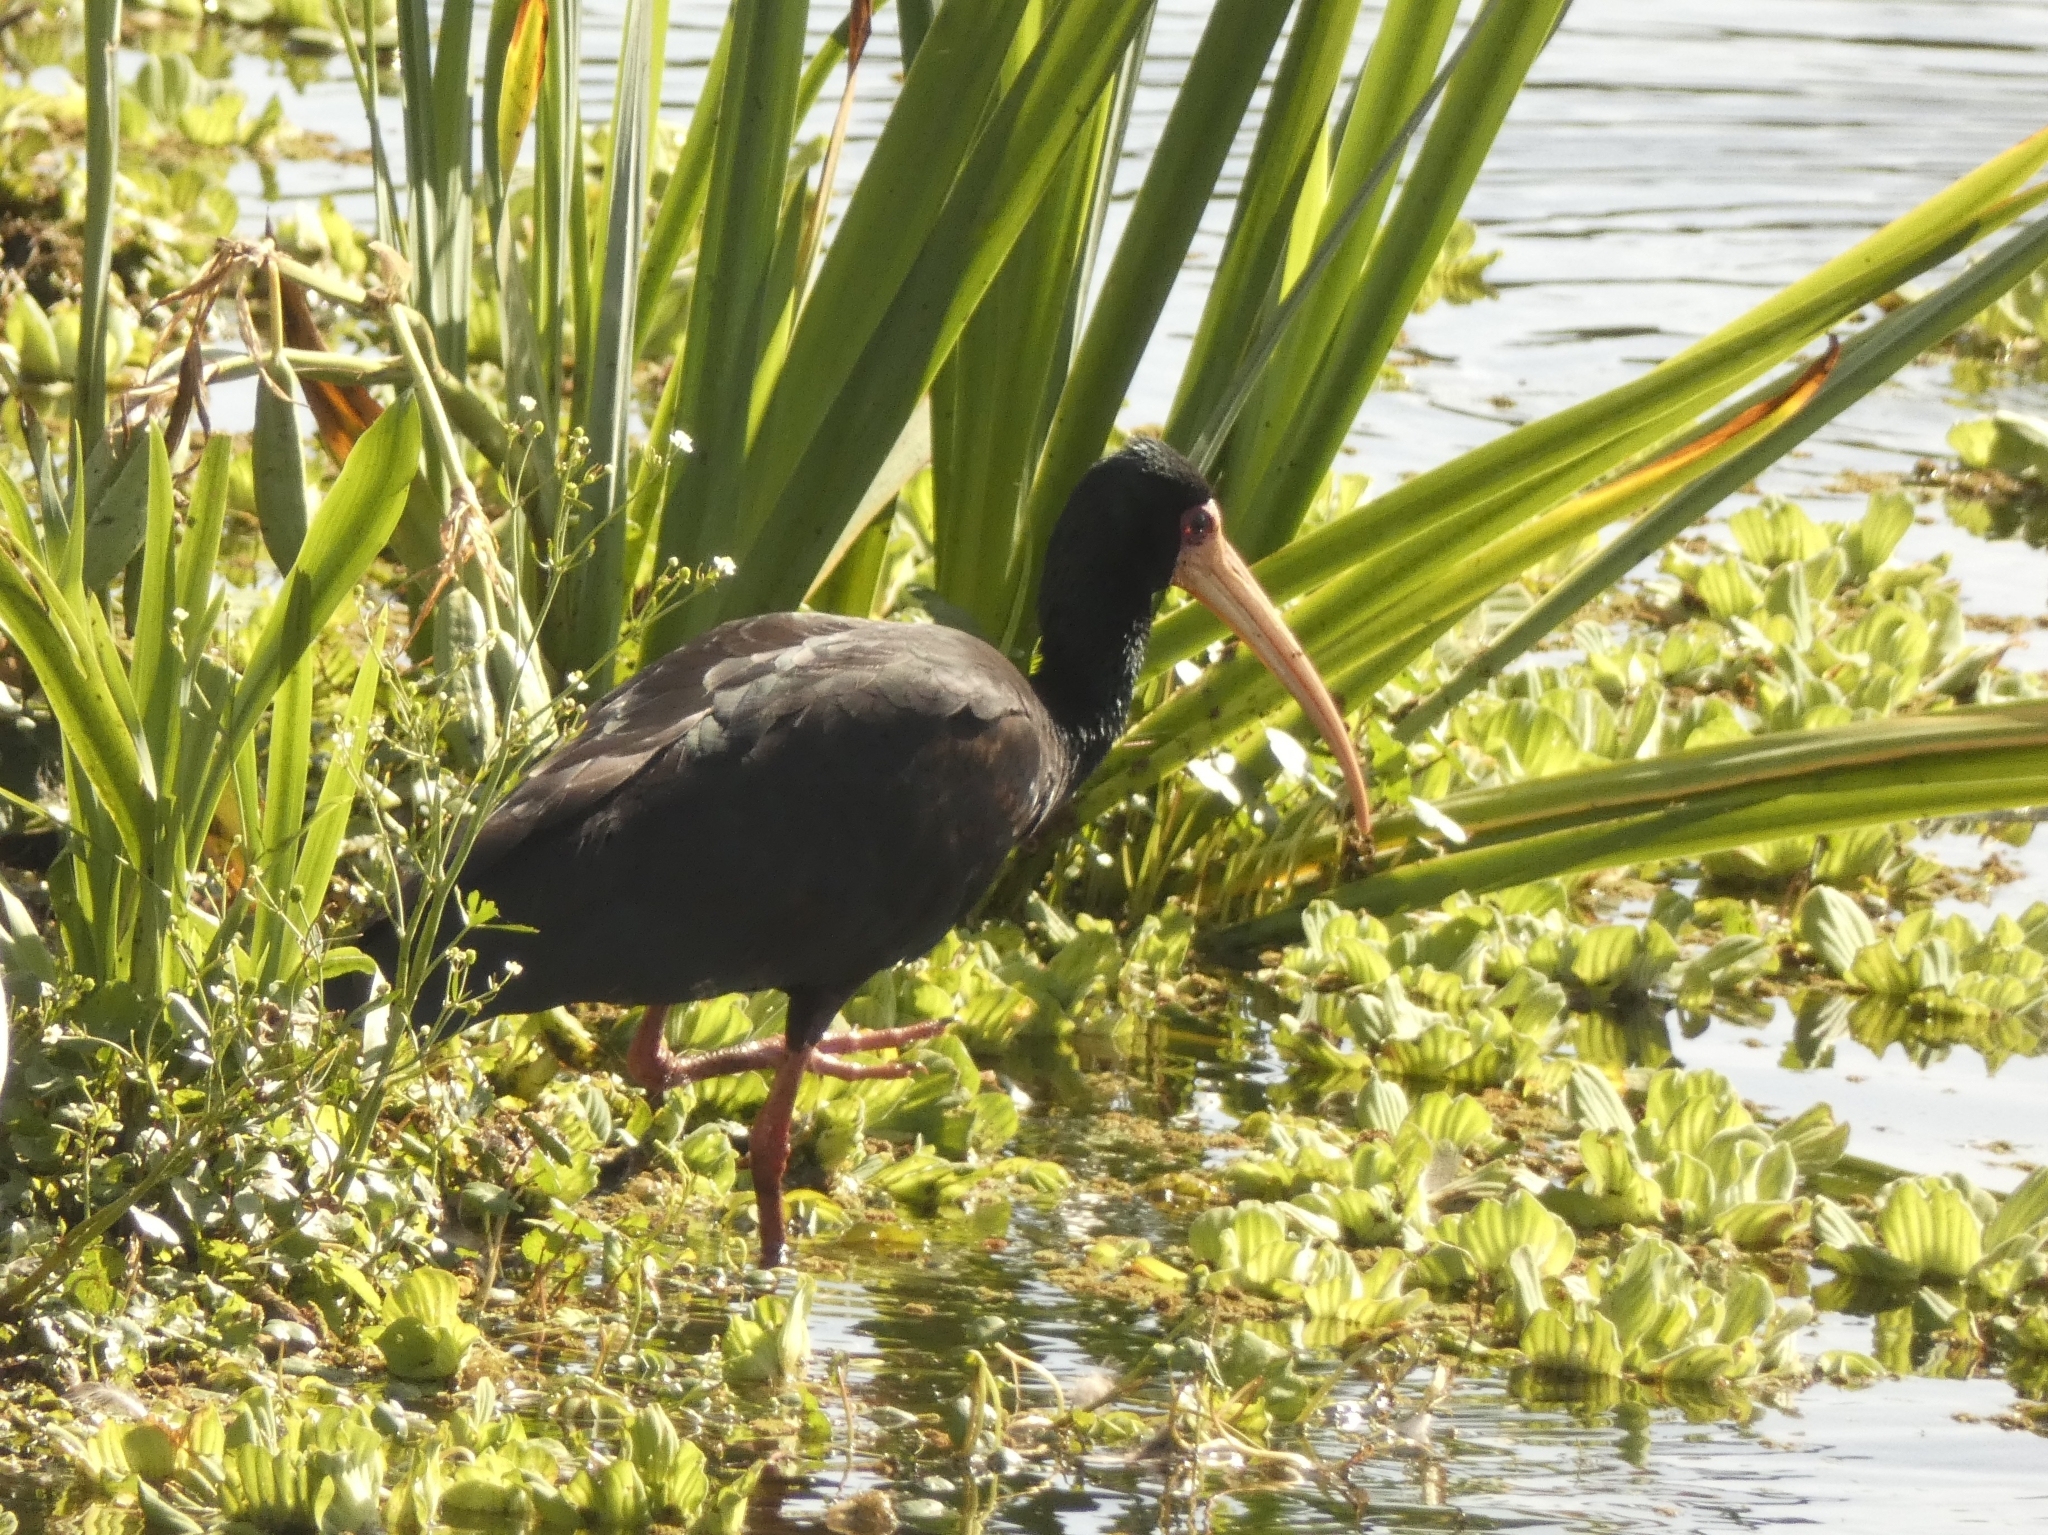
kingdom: Animalia
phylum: Chordata
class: Aves
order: Pelecaniformes
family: Threskiornithidae
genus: Phimosus
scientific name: Phimosus infuscatus
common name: Bare-faced ibis
